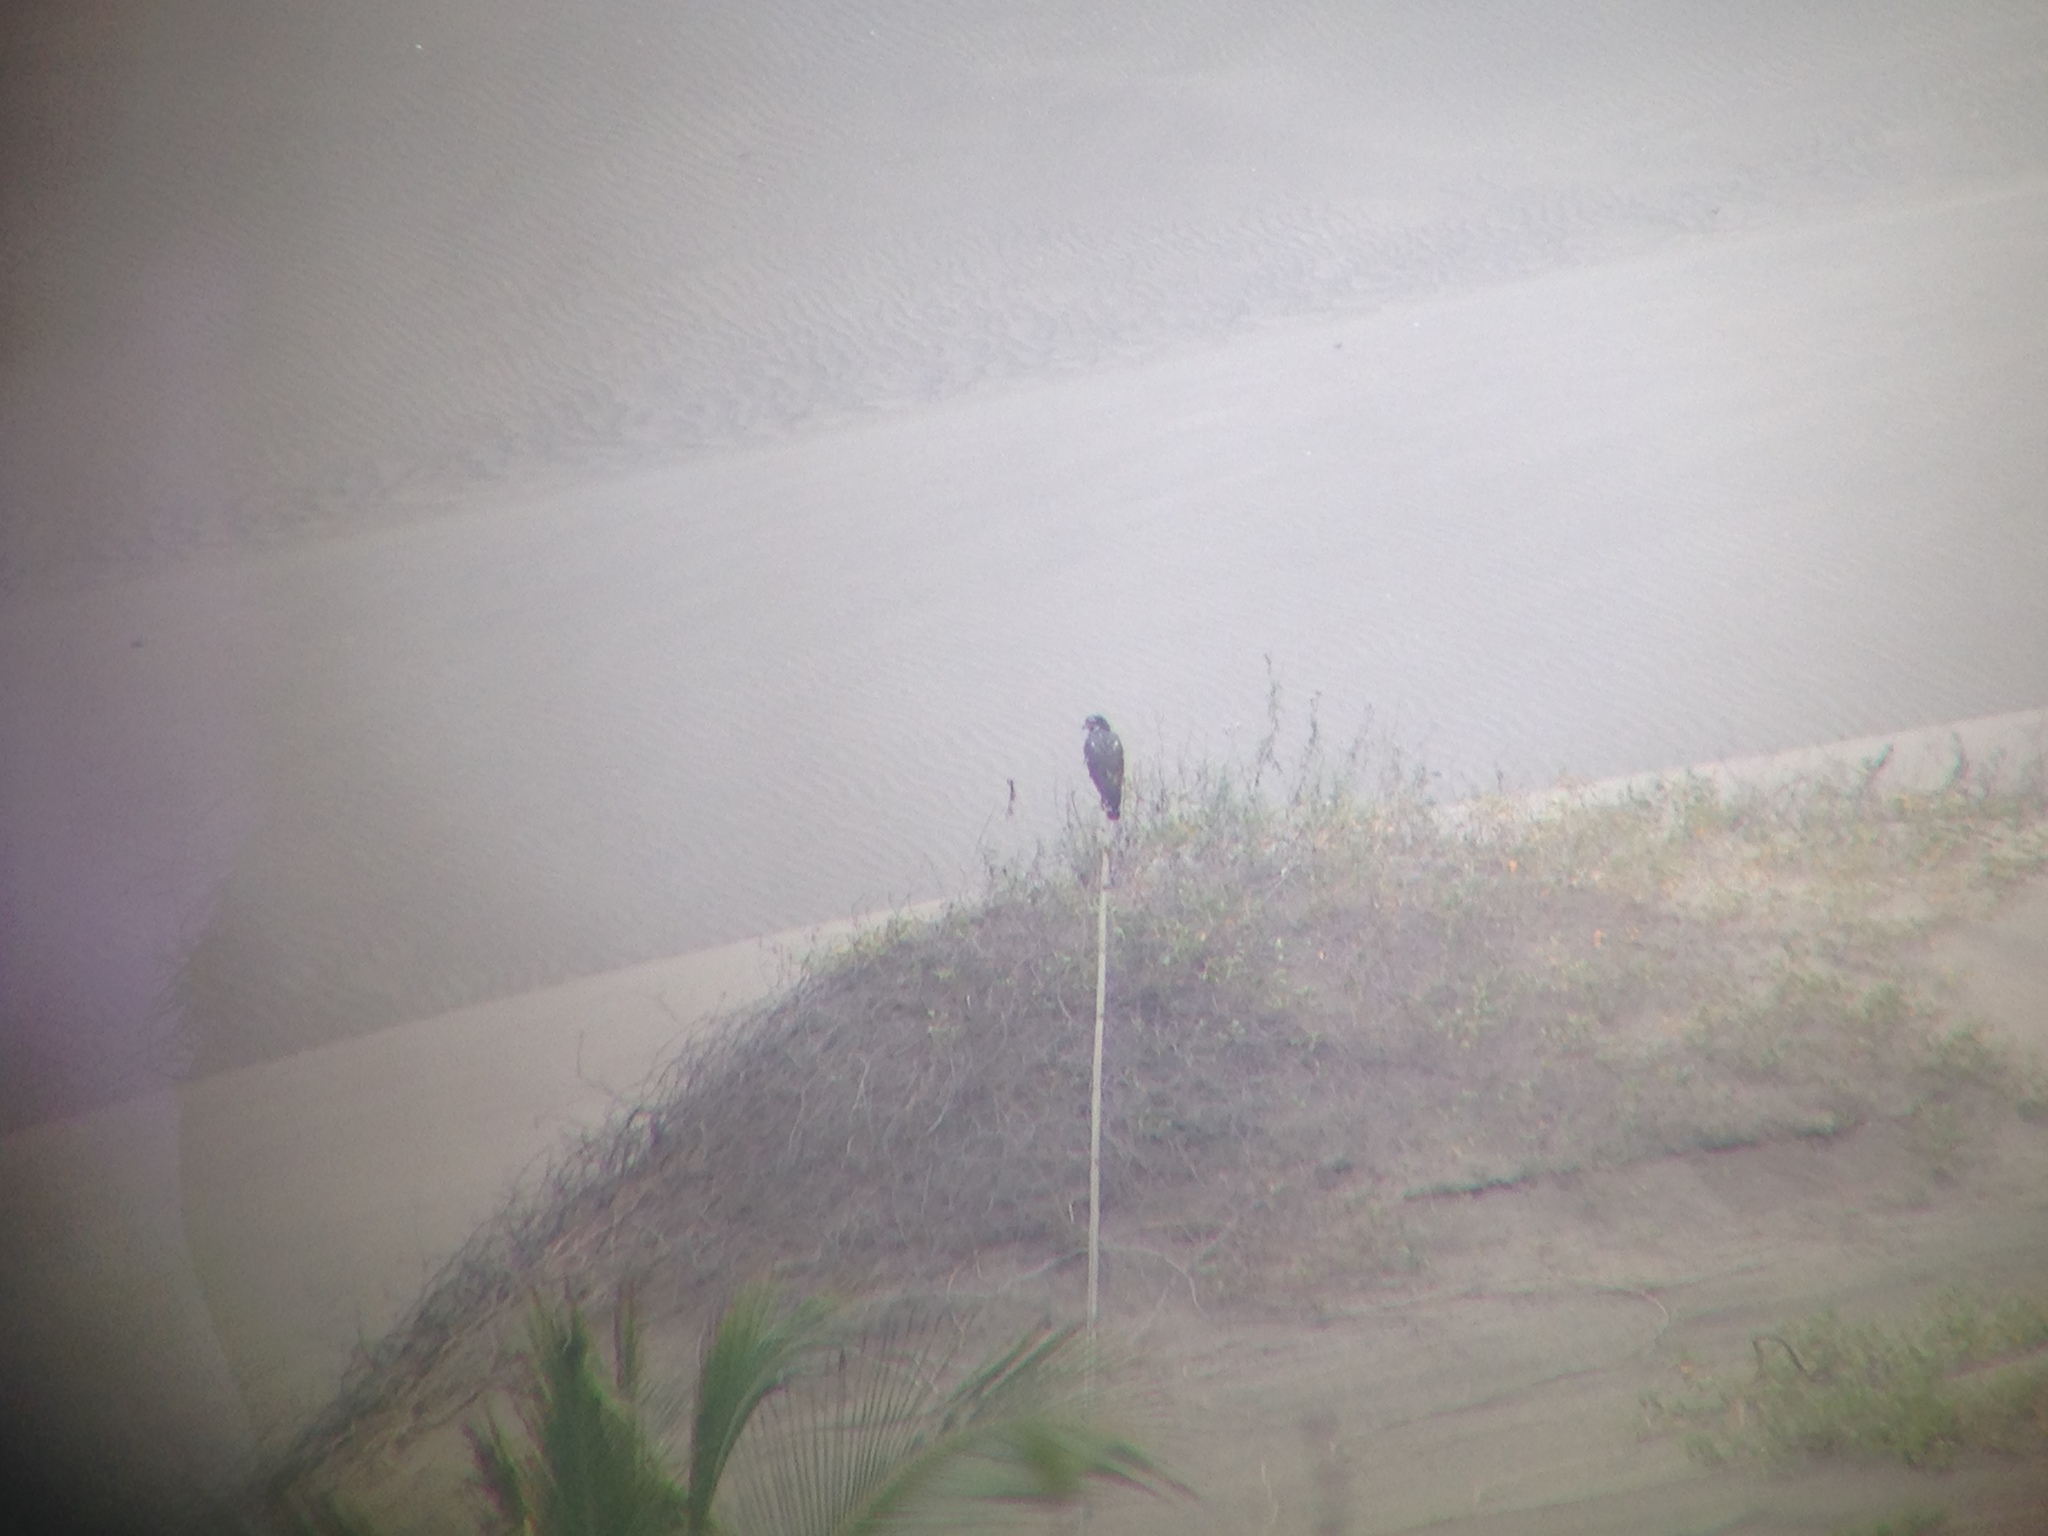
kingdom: Animalia
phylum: Chordata
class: Aves
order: Accipitriformes
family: Accipitridae
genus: Buteogallus
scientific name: Buteogallus anthracinus
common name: Common black hawk
